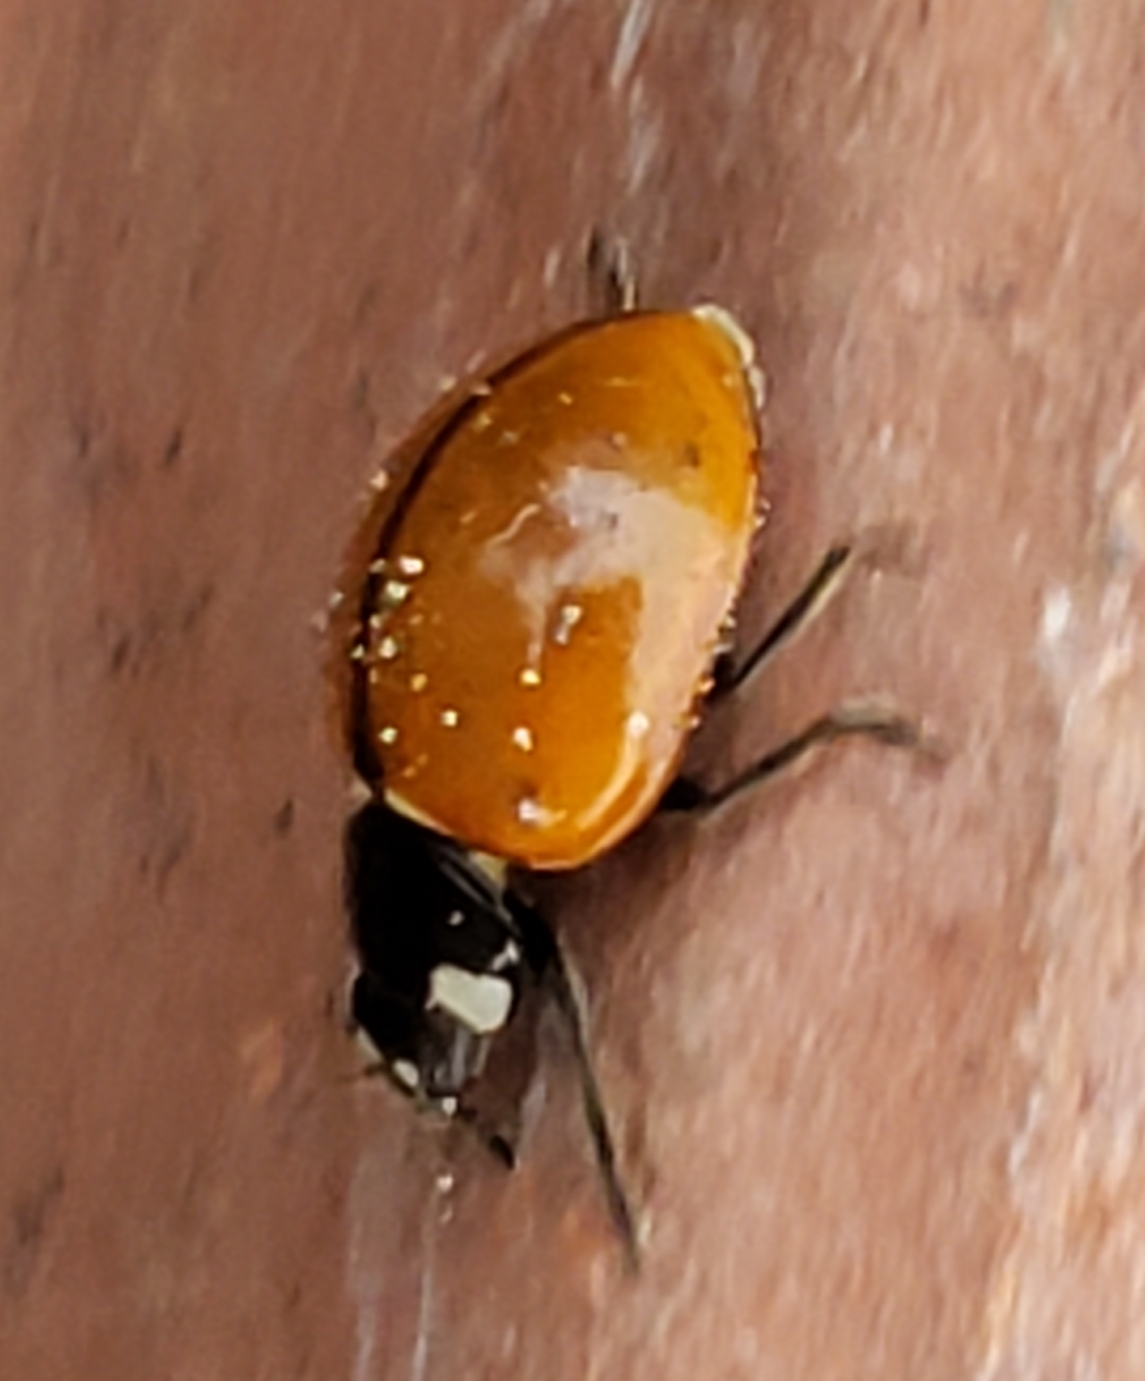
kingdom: Animalia
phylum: Arthropoda
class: Insecta
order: Coleoptera
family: Coccinellidae
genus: Coccinella
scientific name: Coccinella californica
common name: Lady beetle
